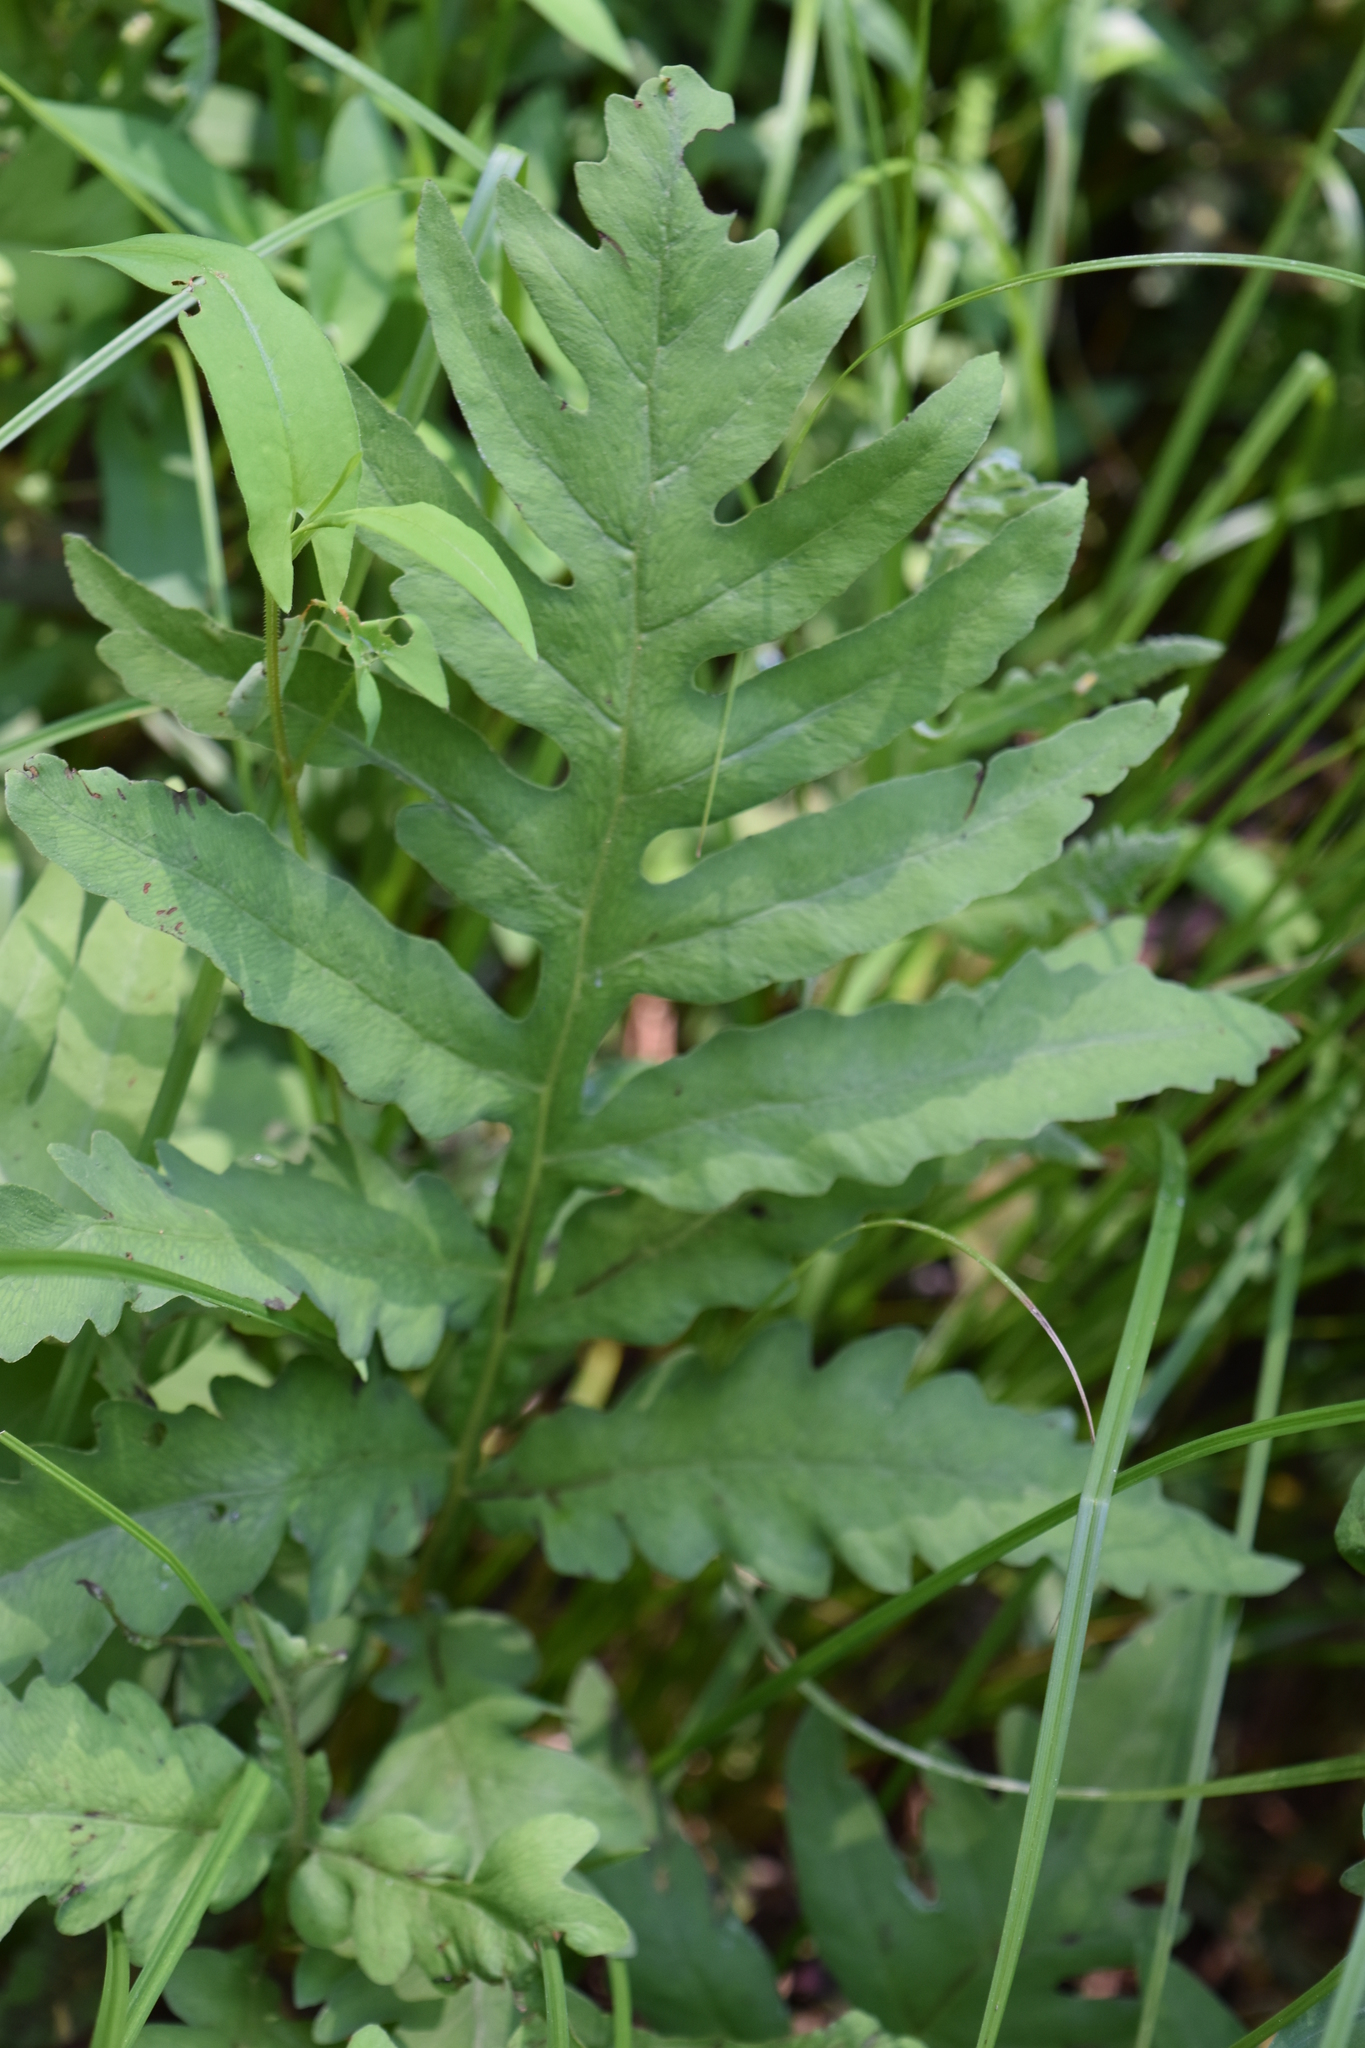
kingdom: Plantae
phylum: Tracheophyta
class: Polypodiopsida
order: Polypodiales
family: Onocleaceae
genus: Onoclea
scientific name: Onoclea sensibilis
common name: Sensitive fern
